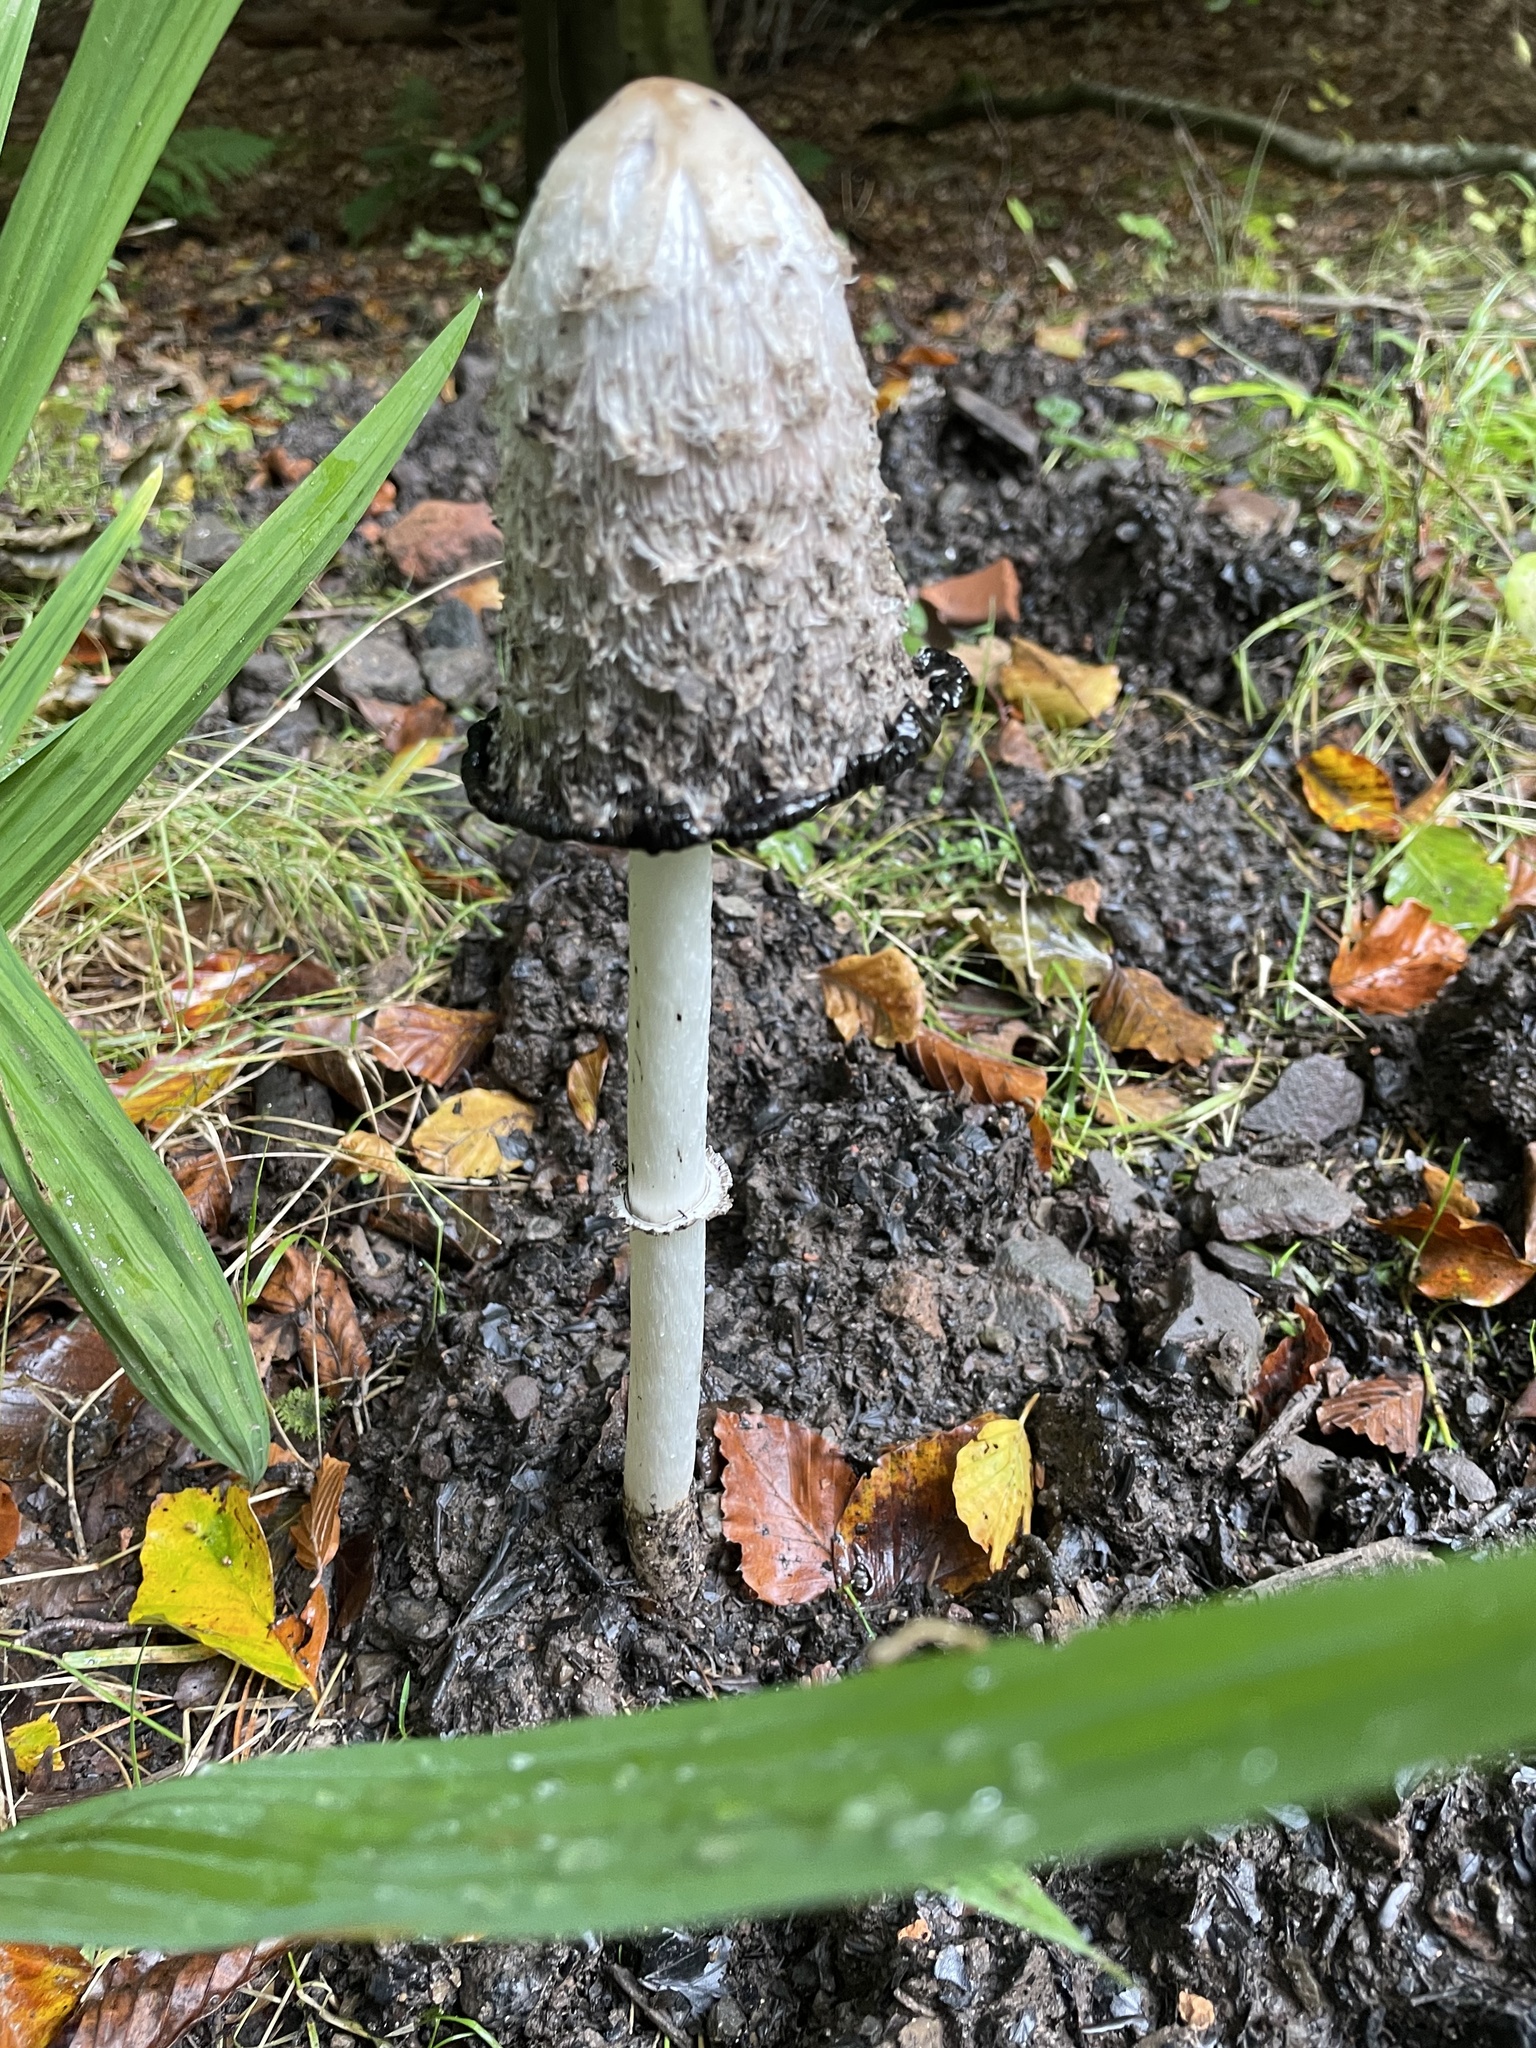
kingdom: Fungi
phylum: Basidiomycota
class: Agaricomycetes
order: Agaricales
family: Agaricaceae
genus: Coprinus
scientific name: Coprinus comatus
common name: Lawyer's wig
